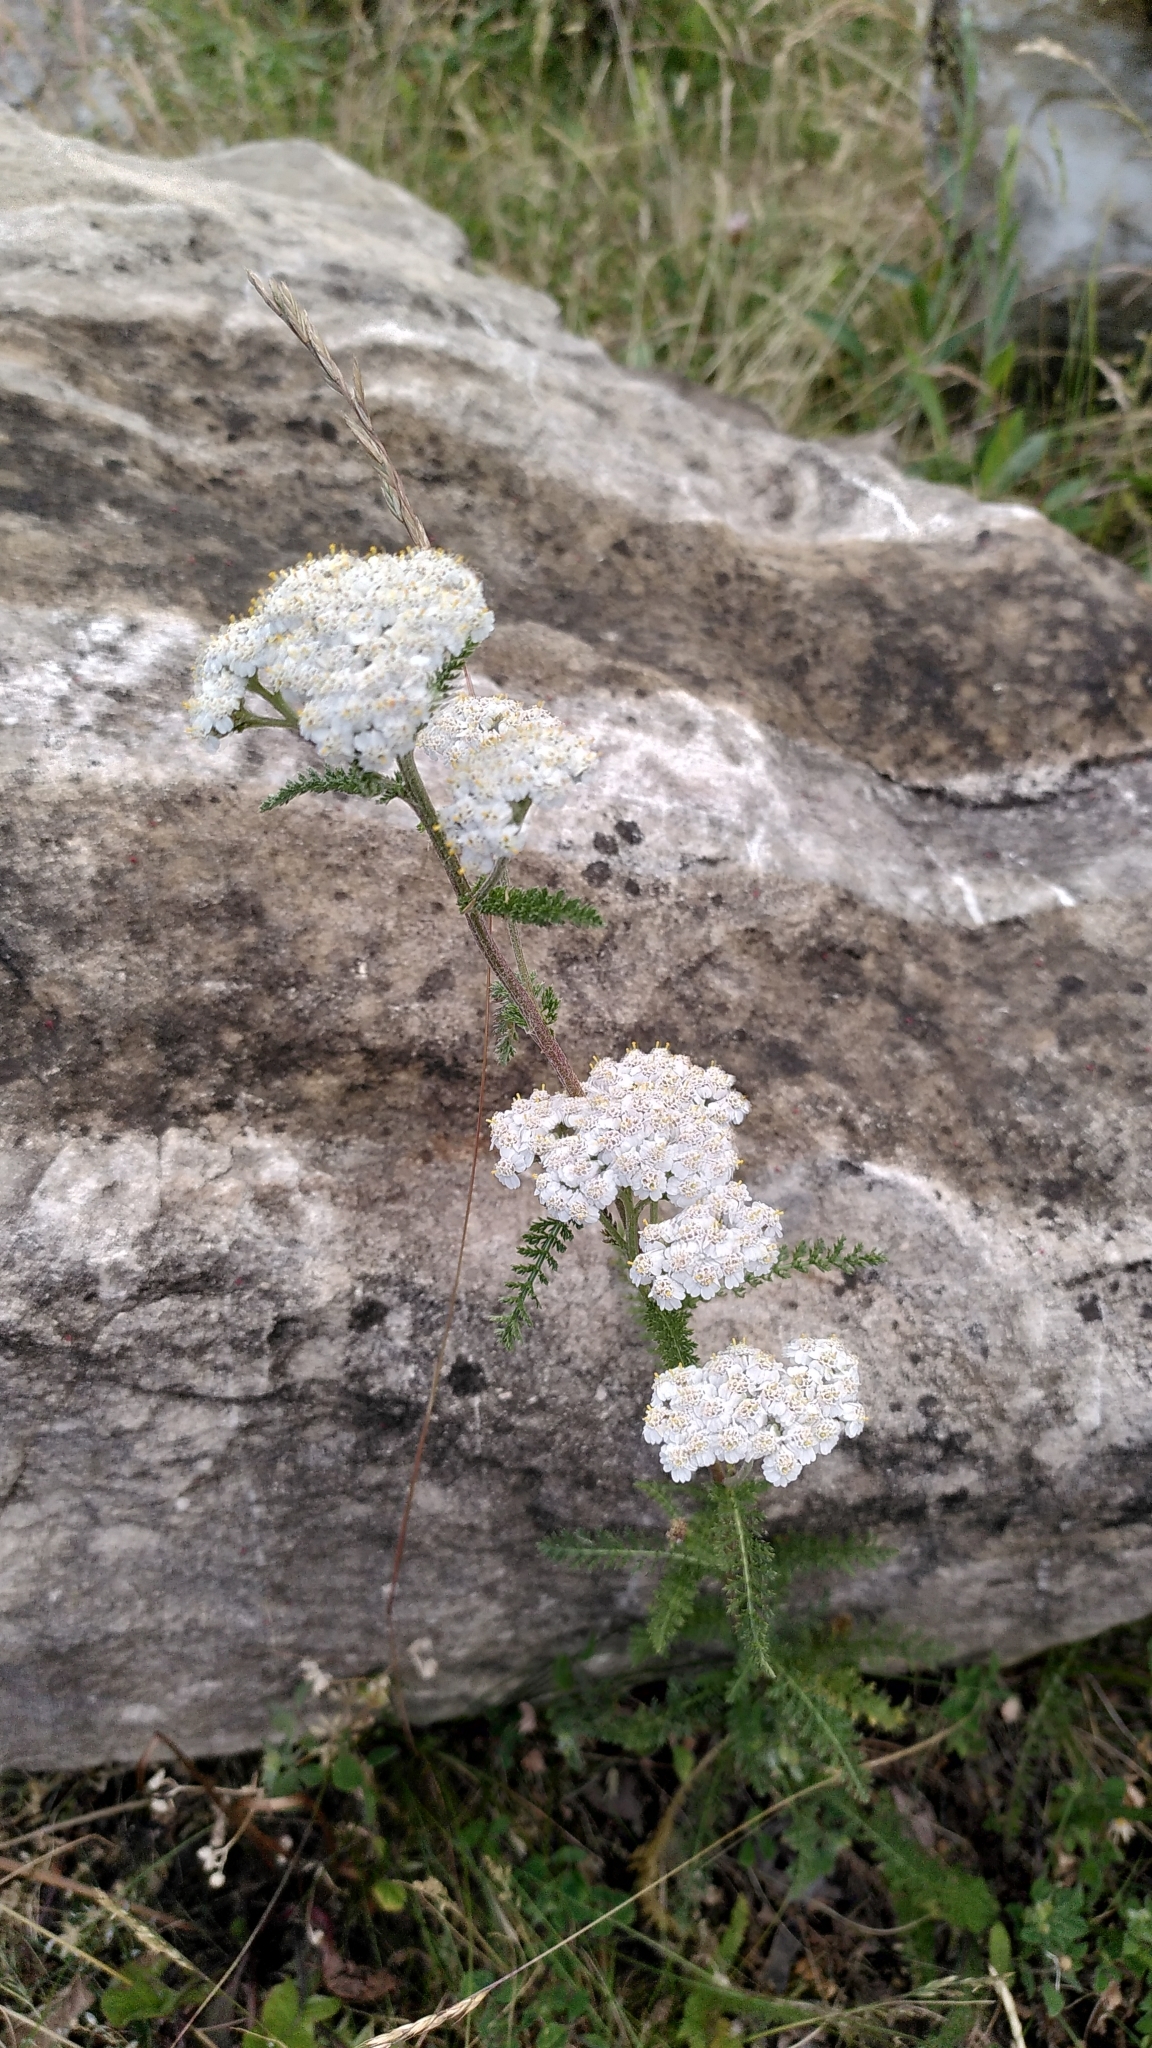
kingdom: Plantae
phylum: Tracheophyta
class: Magnoliopsida
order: Asterales
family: Asteraceae
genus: Achillea
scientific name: Achillea millefolium
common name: Yarrow
